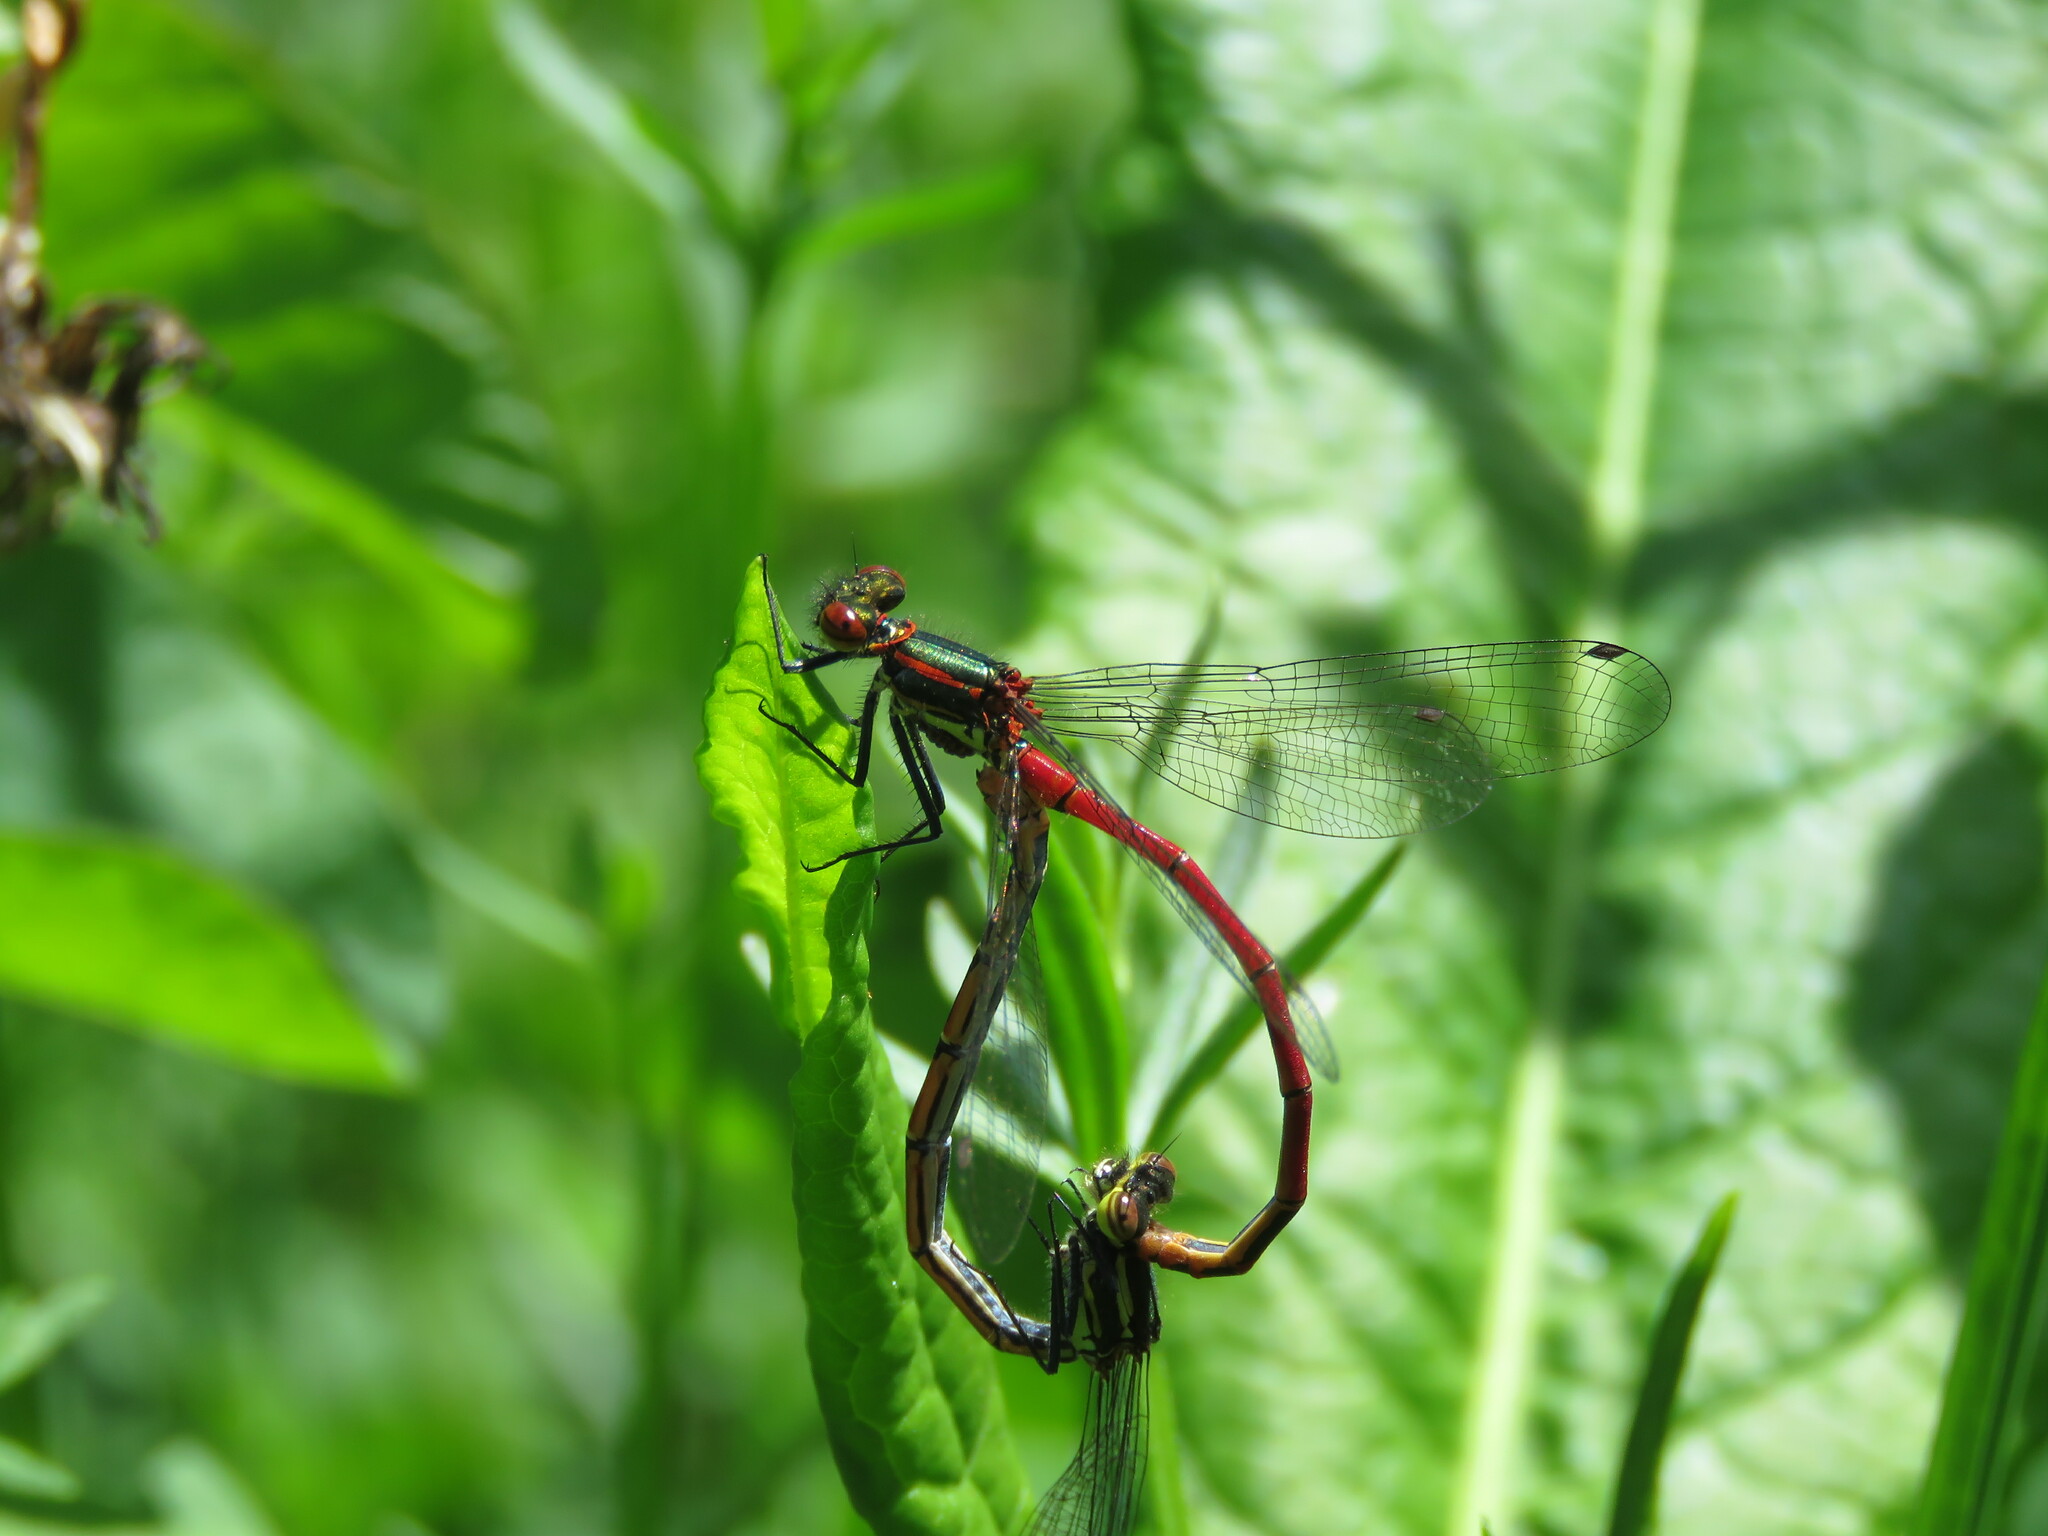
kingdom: Animalia
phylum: Arthropoda
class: Insecta
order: Odonata
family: Coenagrionidae
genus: Pyrrhosoma
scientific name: Pyrrhosoma nymphula
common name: Large red damsel
